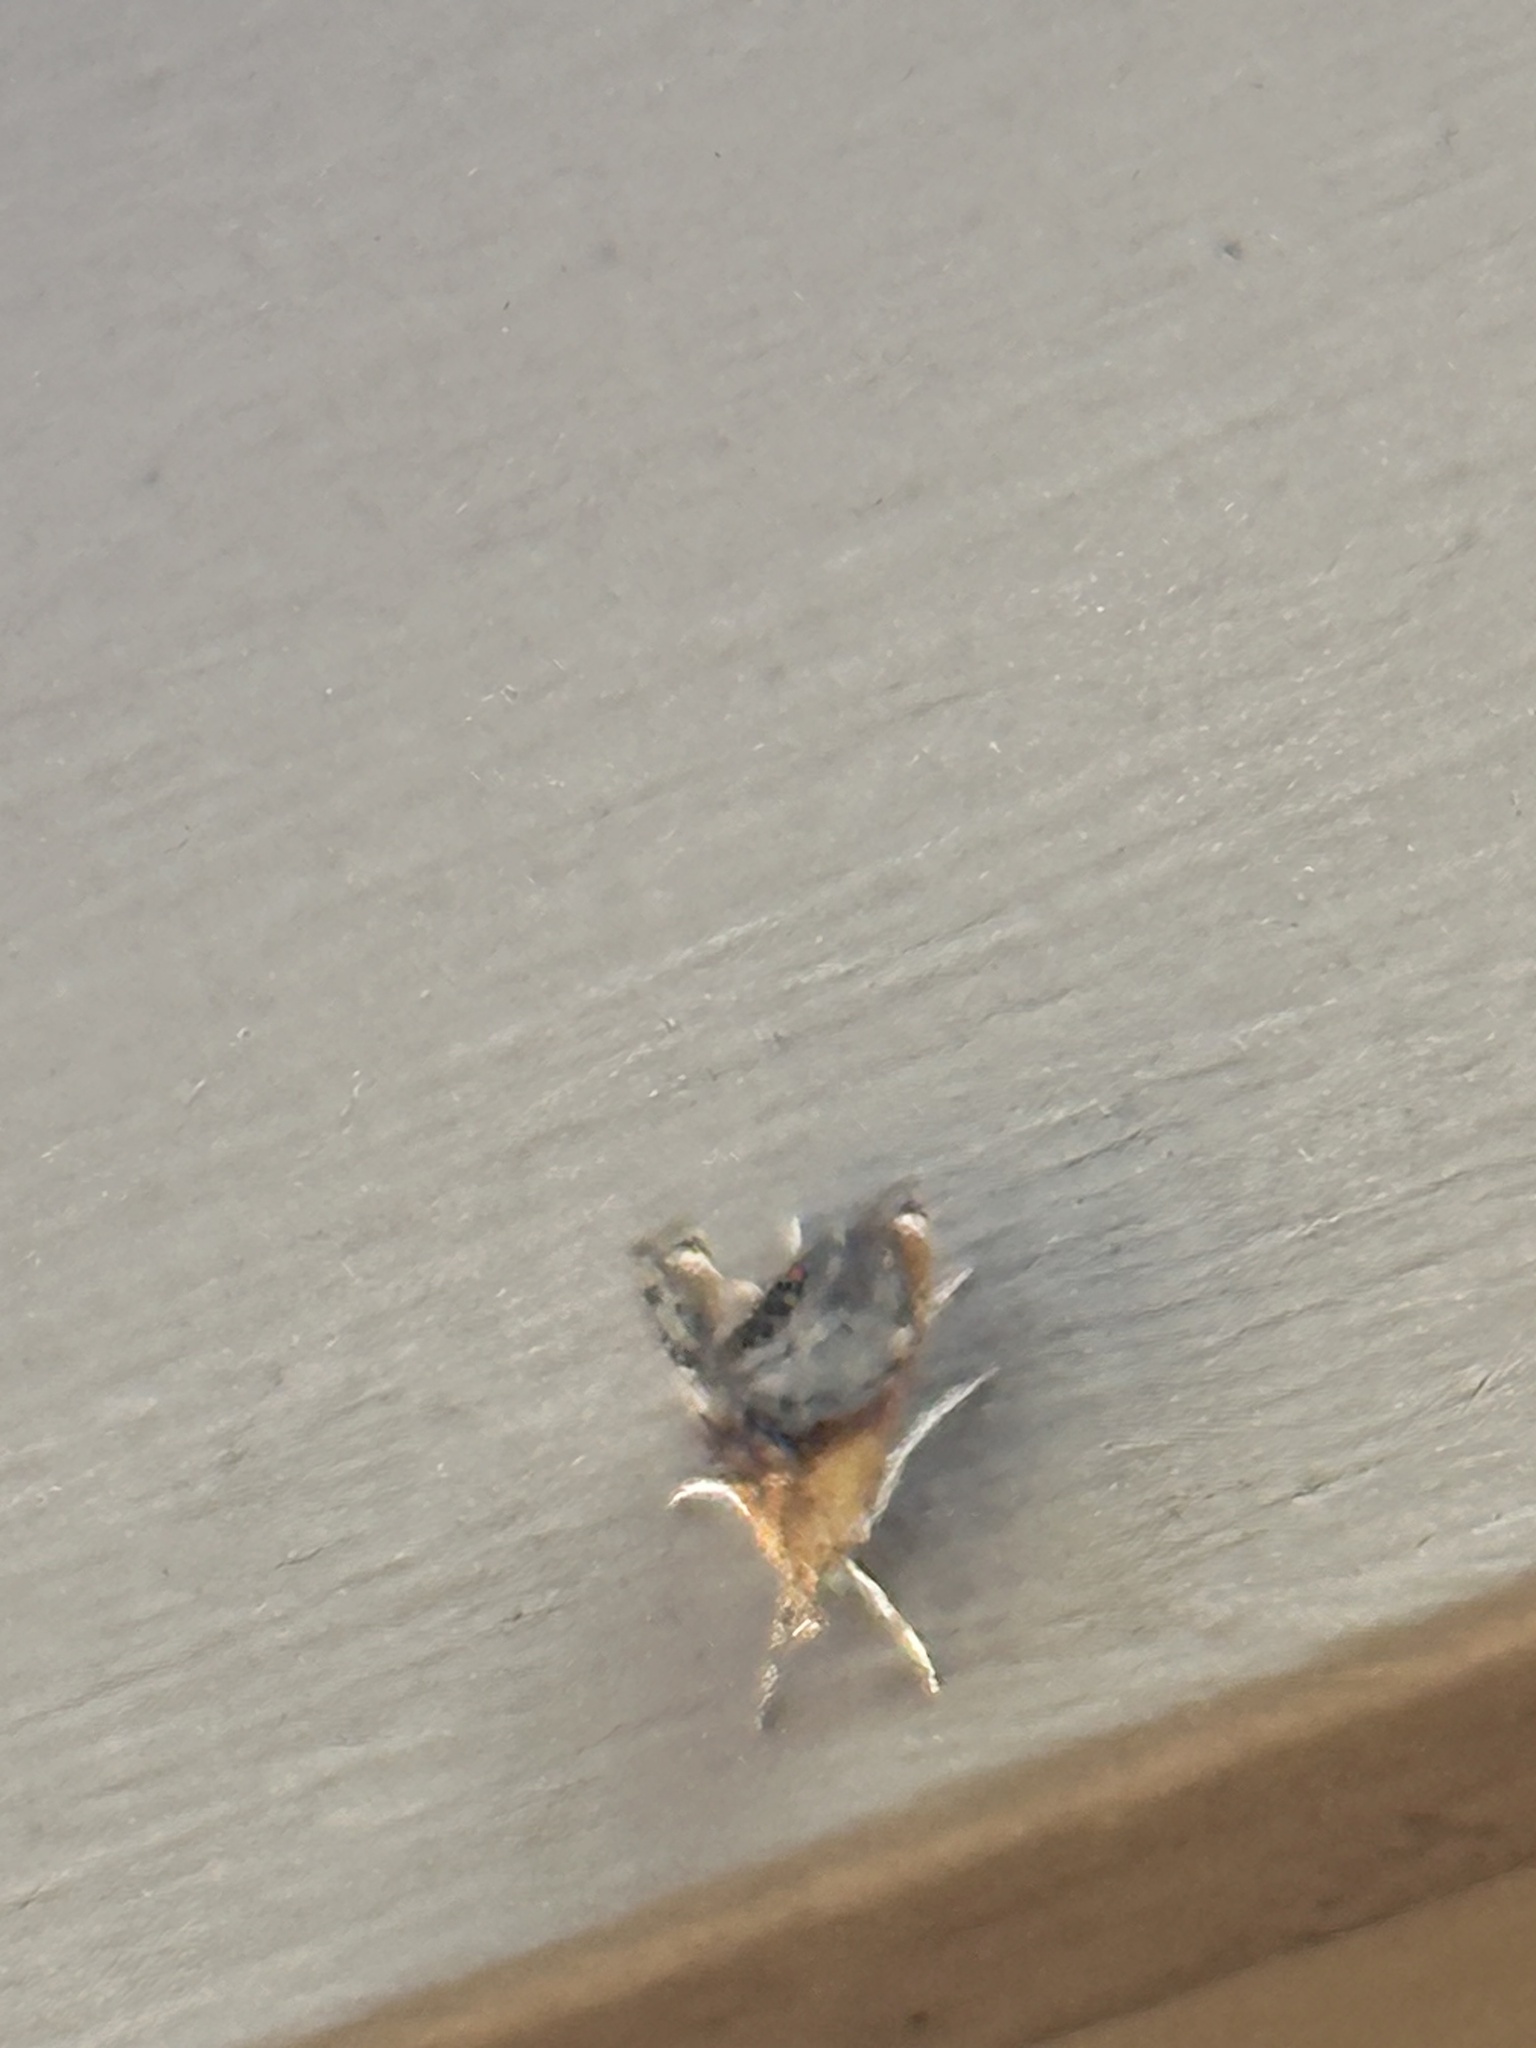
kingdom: Animalia
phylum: Arthropoda
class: Insecta
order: Lepidoptera
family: Crambidae
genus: Chalcoela
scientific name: Chalcoela iphitalis
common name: Sooty-winged chalcoela moth
